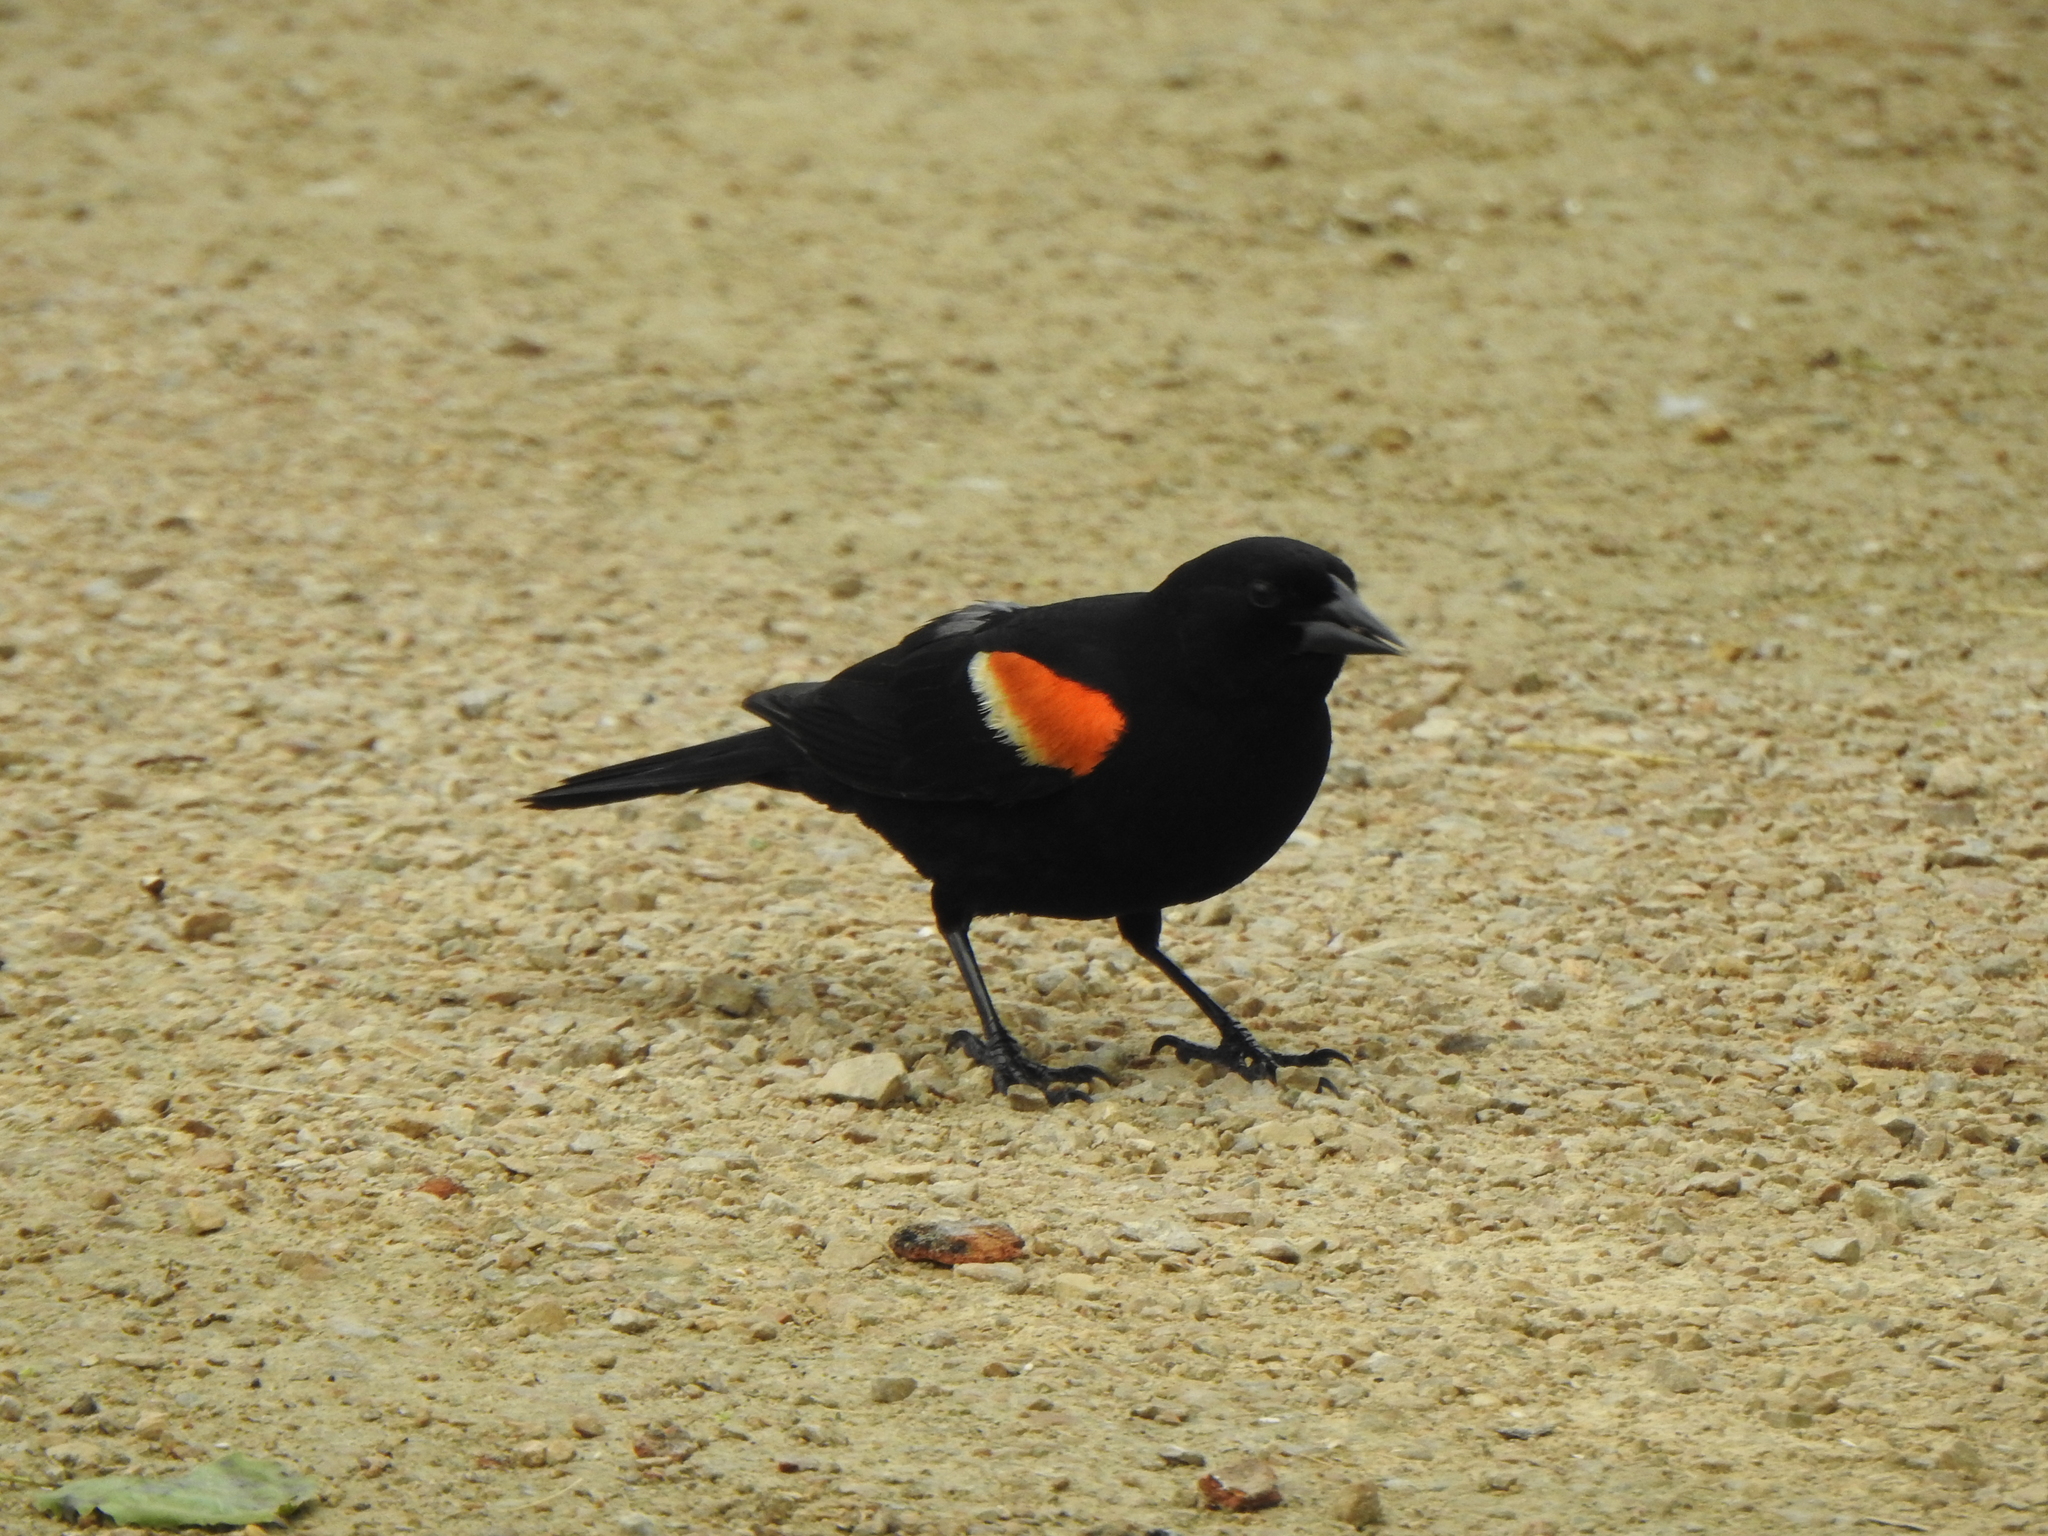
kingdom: Animalia
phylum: Chordata
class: Aves
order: Passeriformes
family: Icteridae
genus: Agelaius
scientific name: Agelaius phoeniceus
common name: Red-winged blackbird
